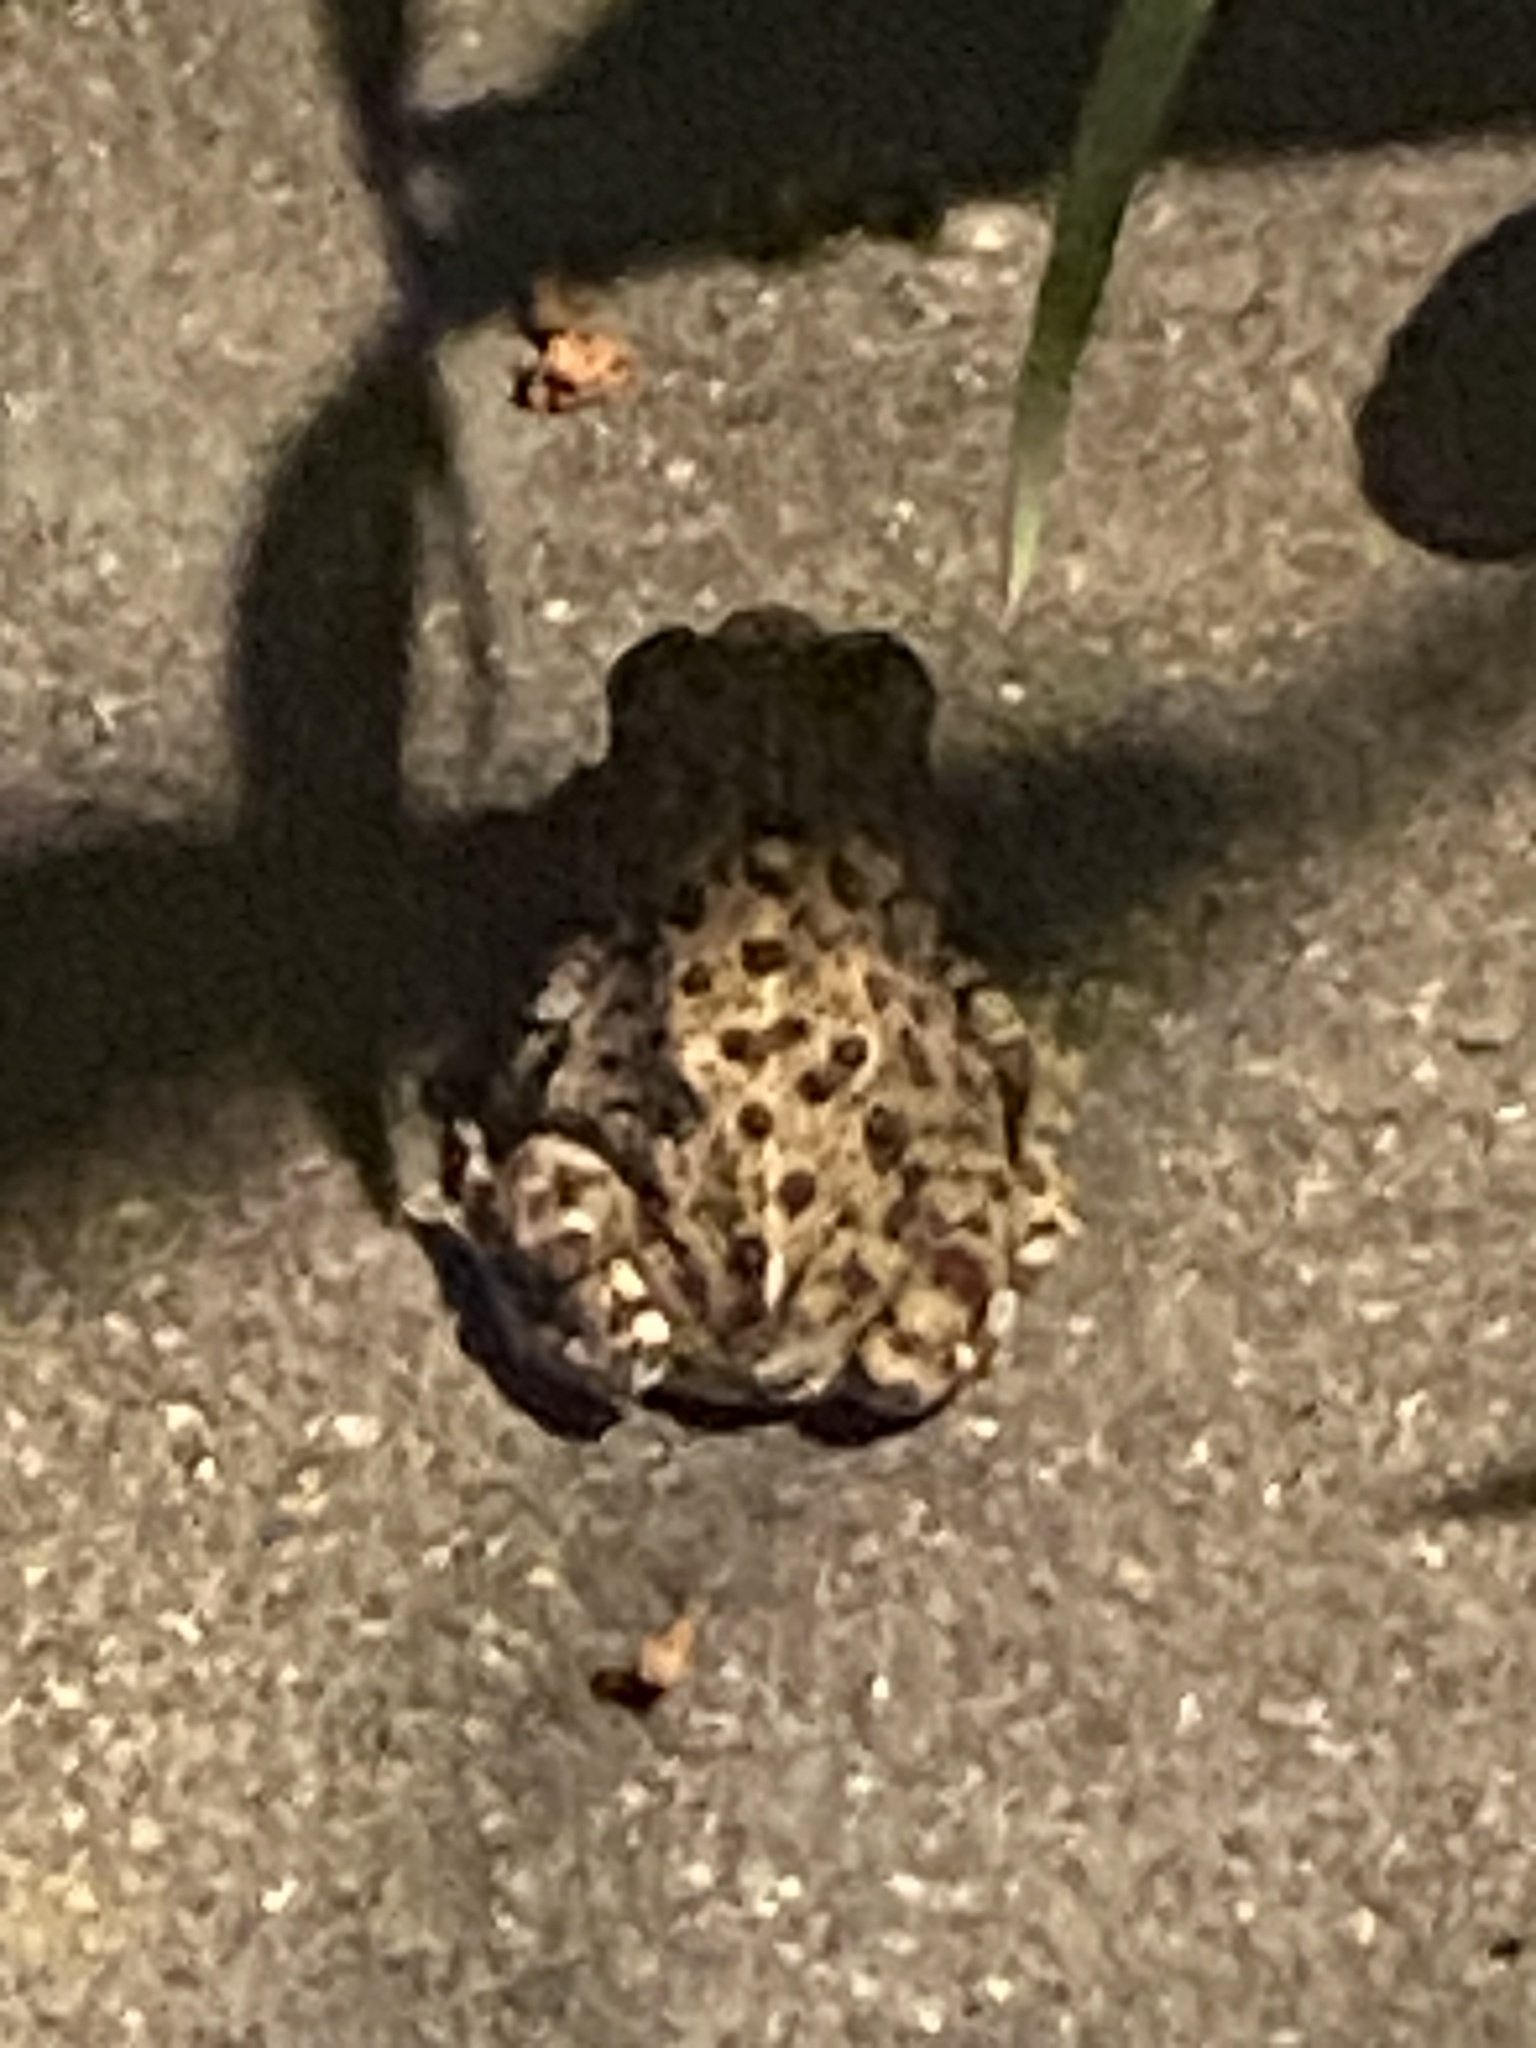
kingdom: Animalia
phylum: Chordata
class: Amphibia
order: Anura
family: Bufonidae
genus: Anaxyrus
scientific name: Anaxyrus boreas
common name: Western toad
